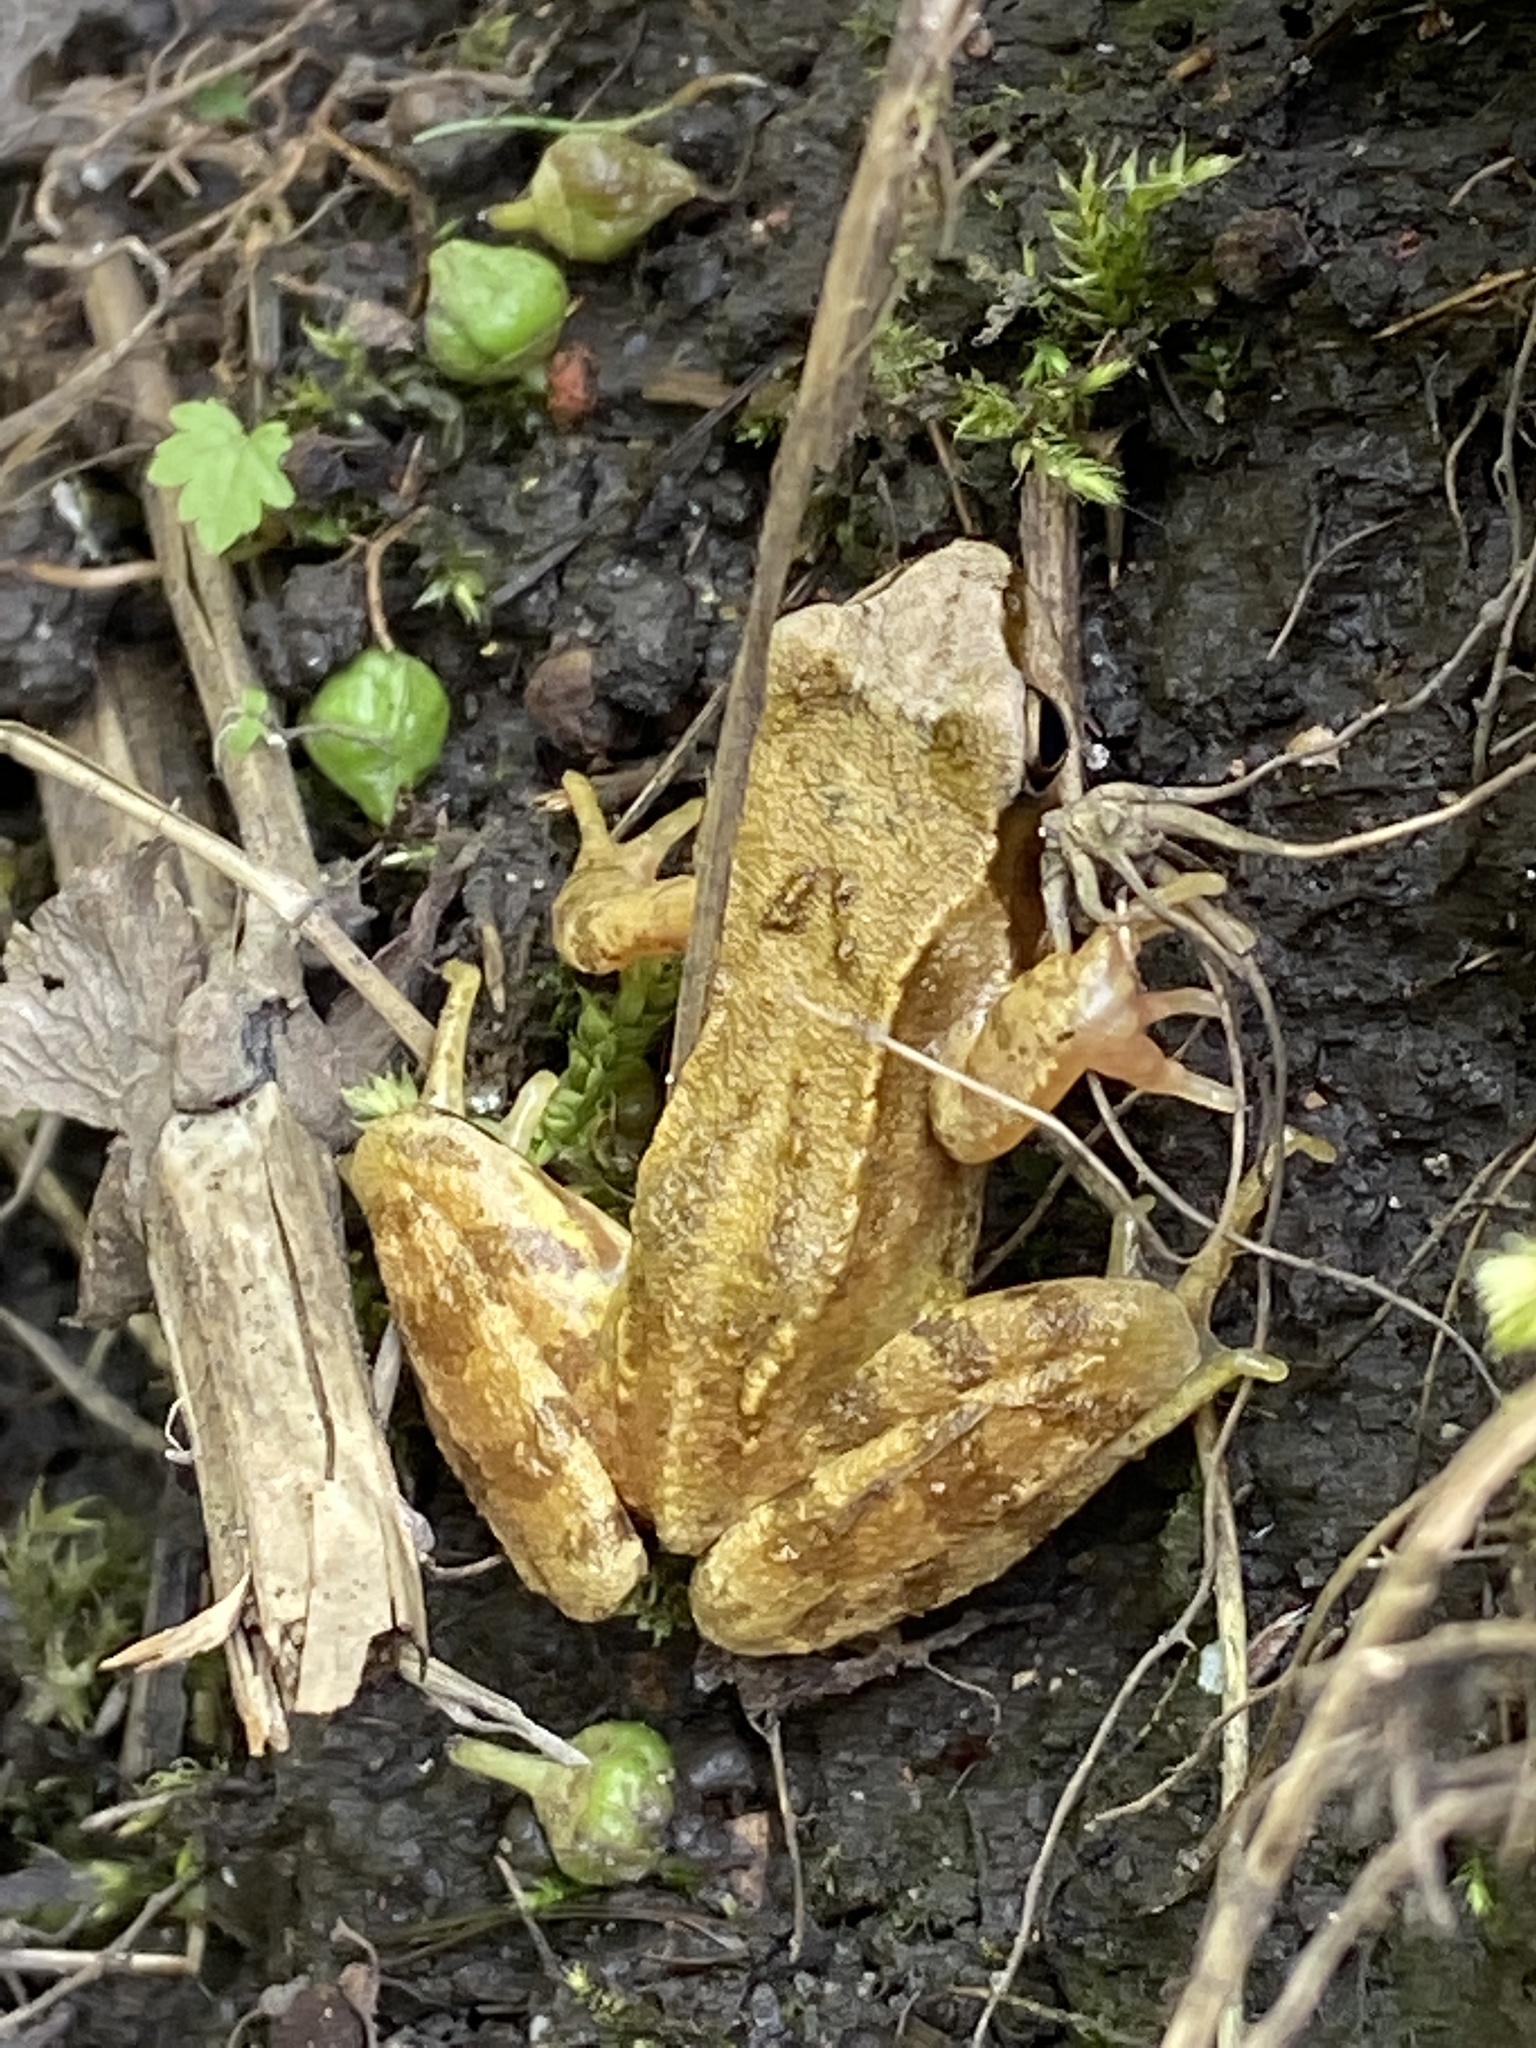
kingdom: Animalia
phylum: Chordata
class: Amphibia
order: Anura
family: Ranidae
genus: Rana
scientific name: Rana temporaria
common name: Common frog
